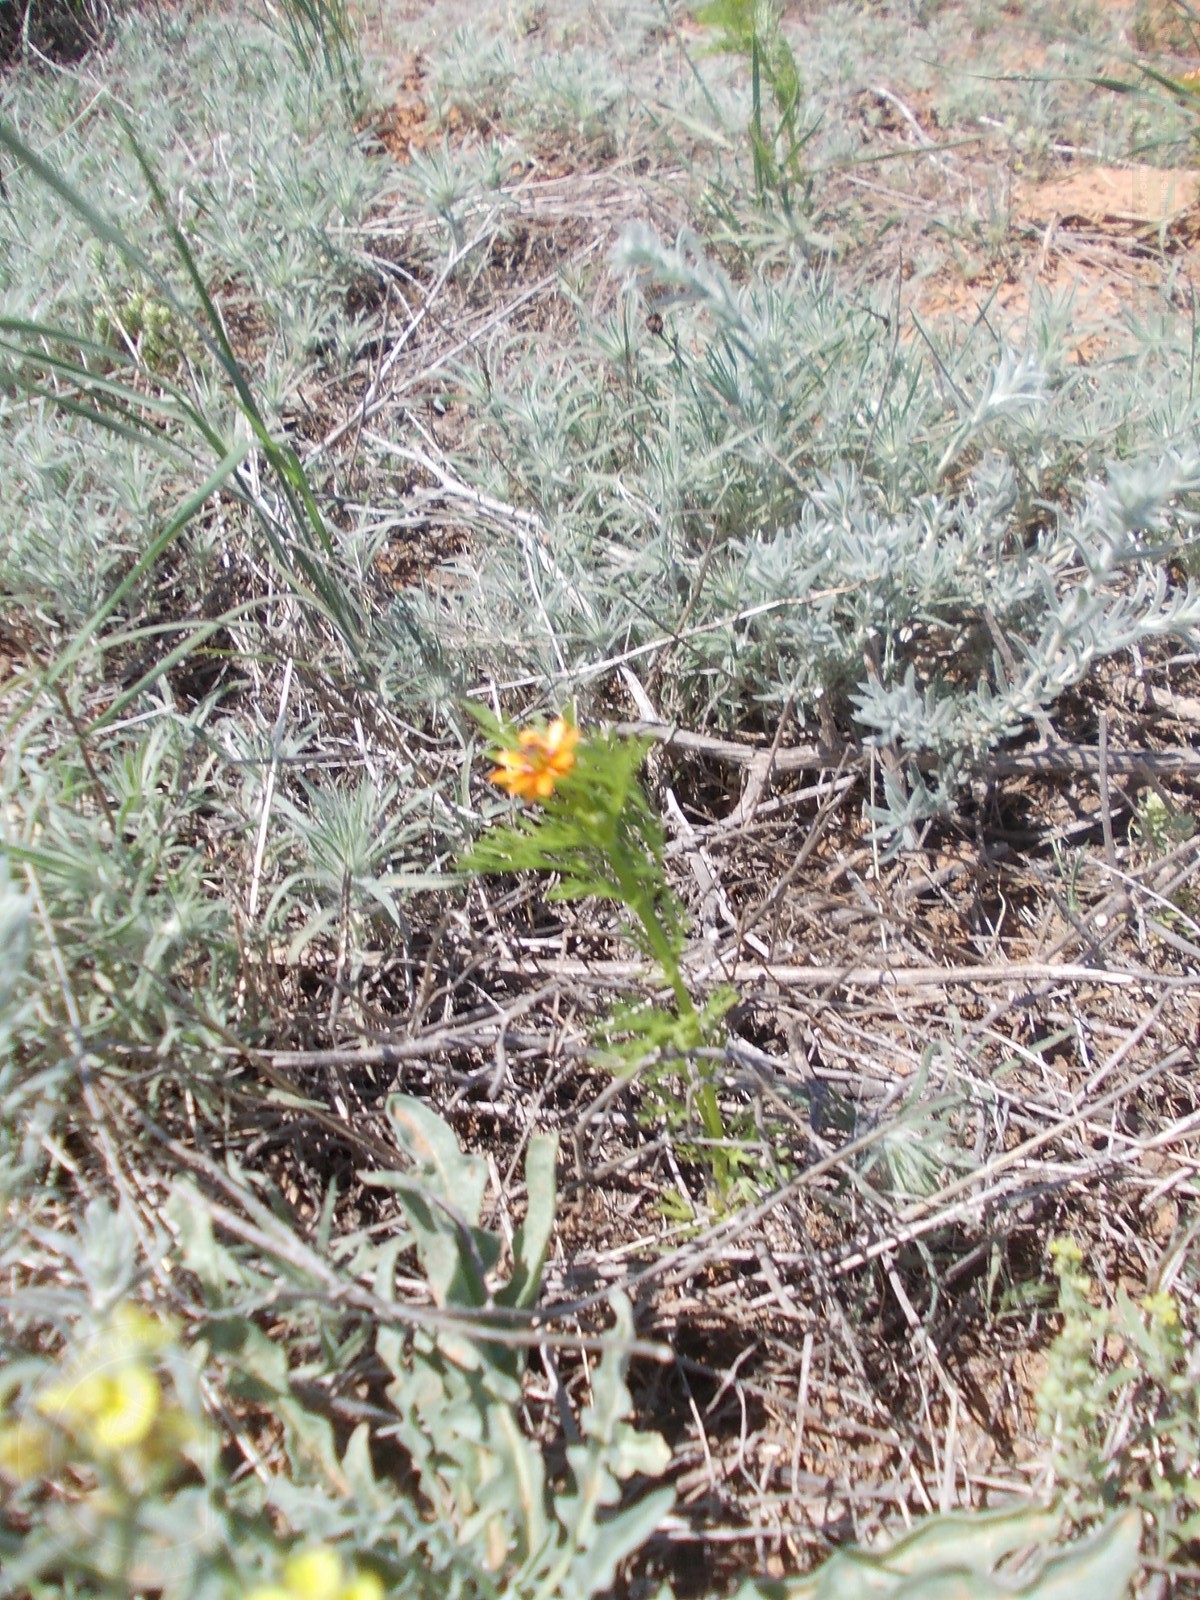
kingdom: Plantae
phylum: Tracheophyta
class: Magnoliopsida
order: Ranunculales
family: Ranunculaceae
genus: Adonis
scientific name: Adonis aestivalis
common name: Summer pheasant's-eye
